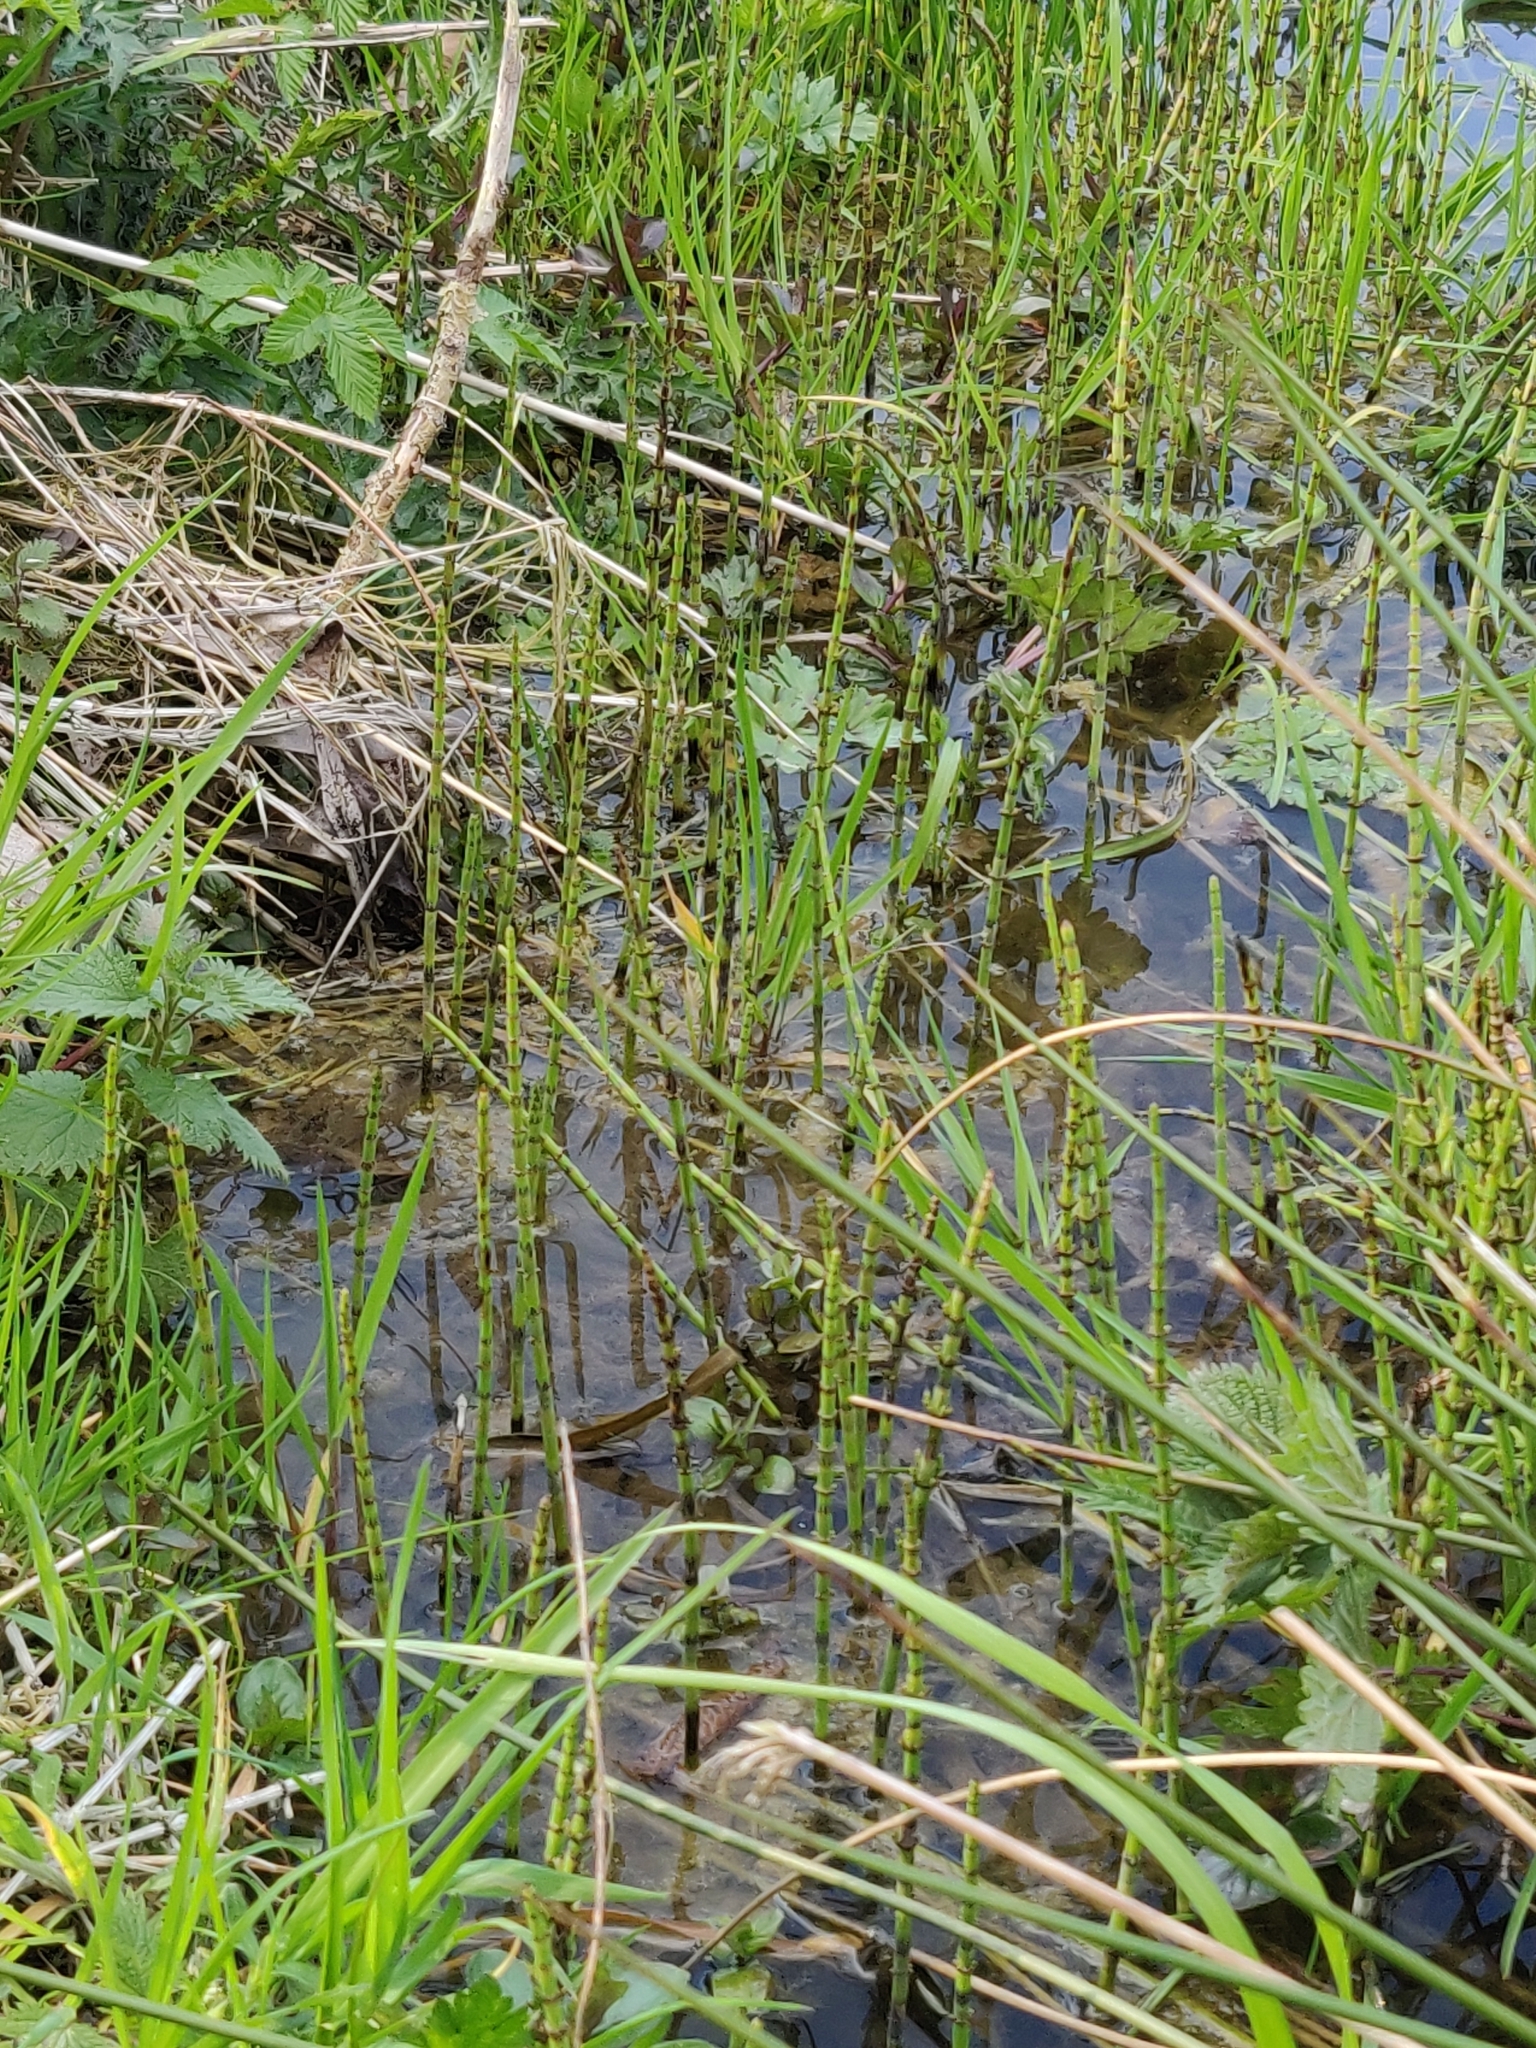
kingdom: Plantae
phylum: Tracheophyta
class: Polypodiopsida
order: Equisetales
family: Equisetaceae
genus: Equisetum
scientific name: Equisetum palustre
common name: Marsh horsetail
